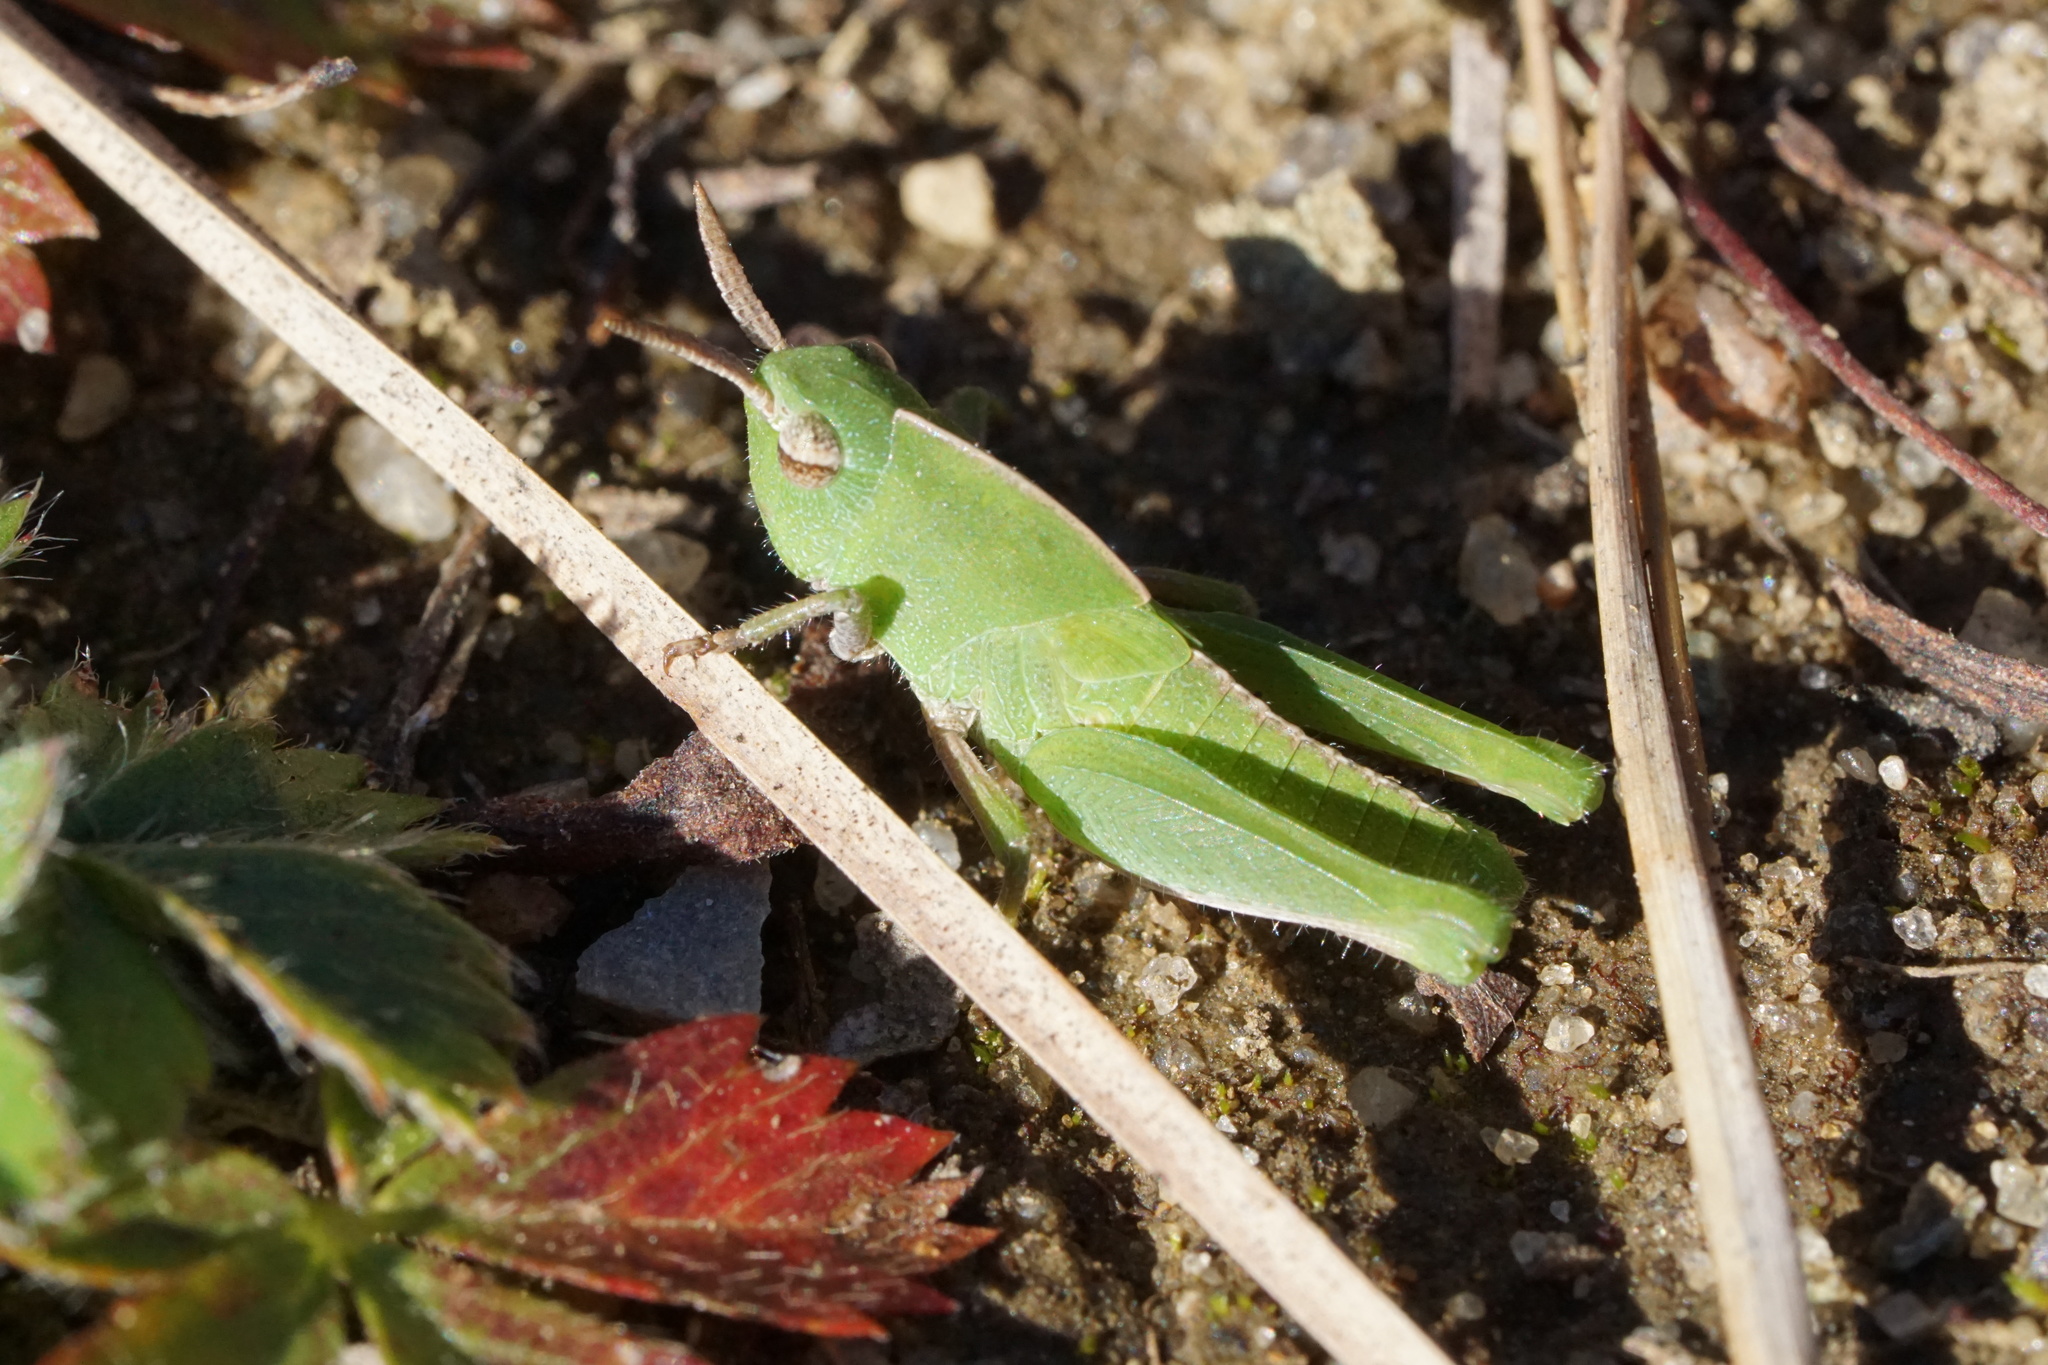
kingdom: Animalia
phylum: Arthropoda
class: Insecta
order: Orthoptera
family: Acrididae
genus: Chortophaga
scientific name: Chortophaga viridifasciata
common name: Green-striped grasshopper
